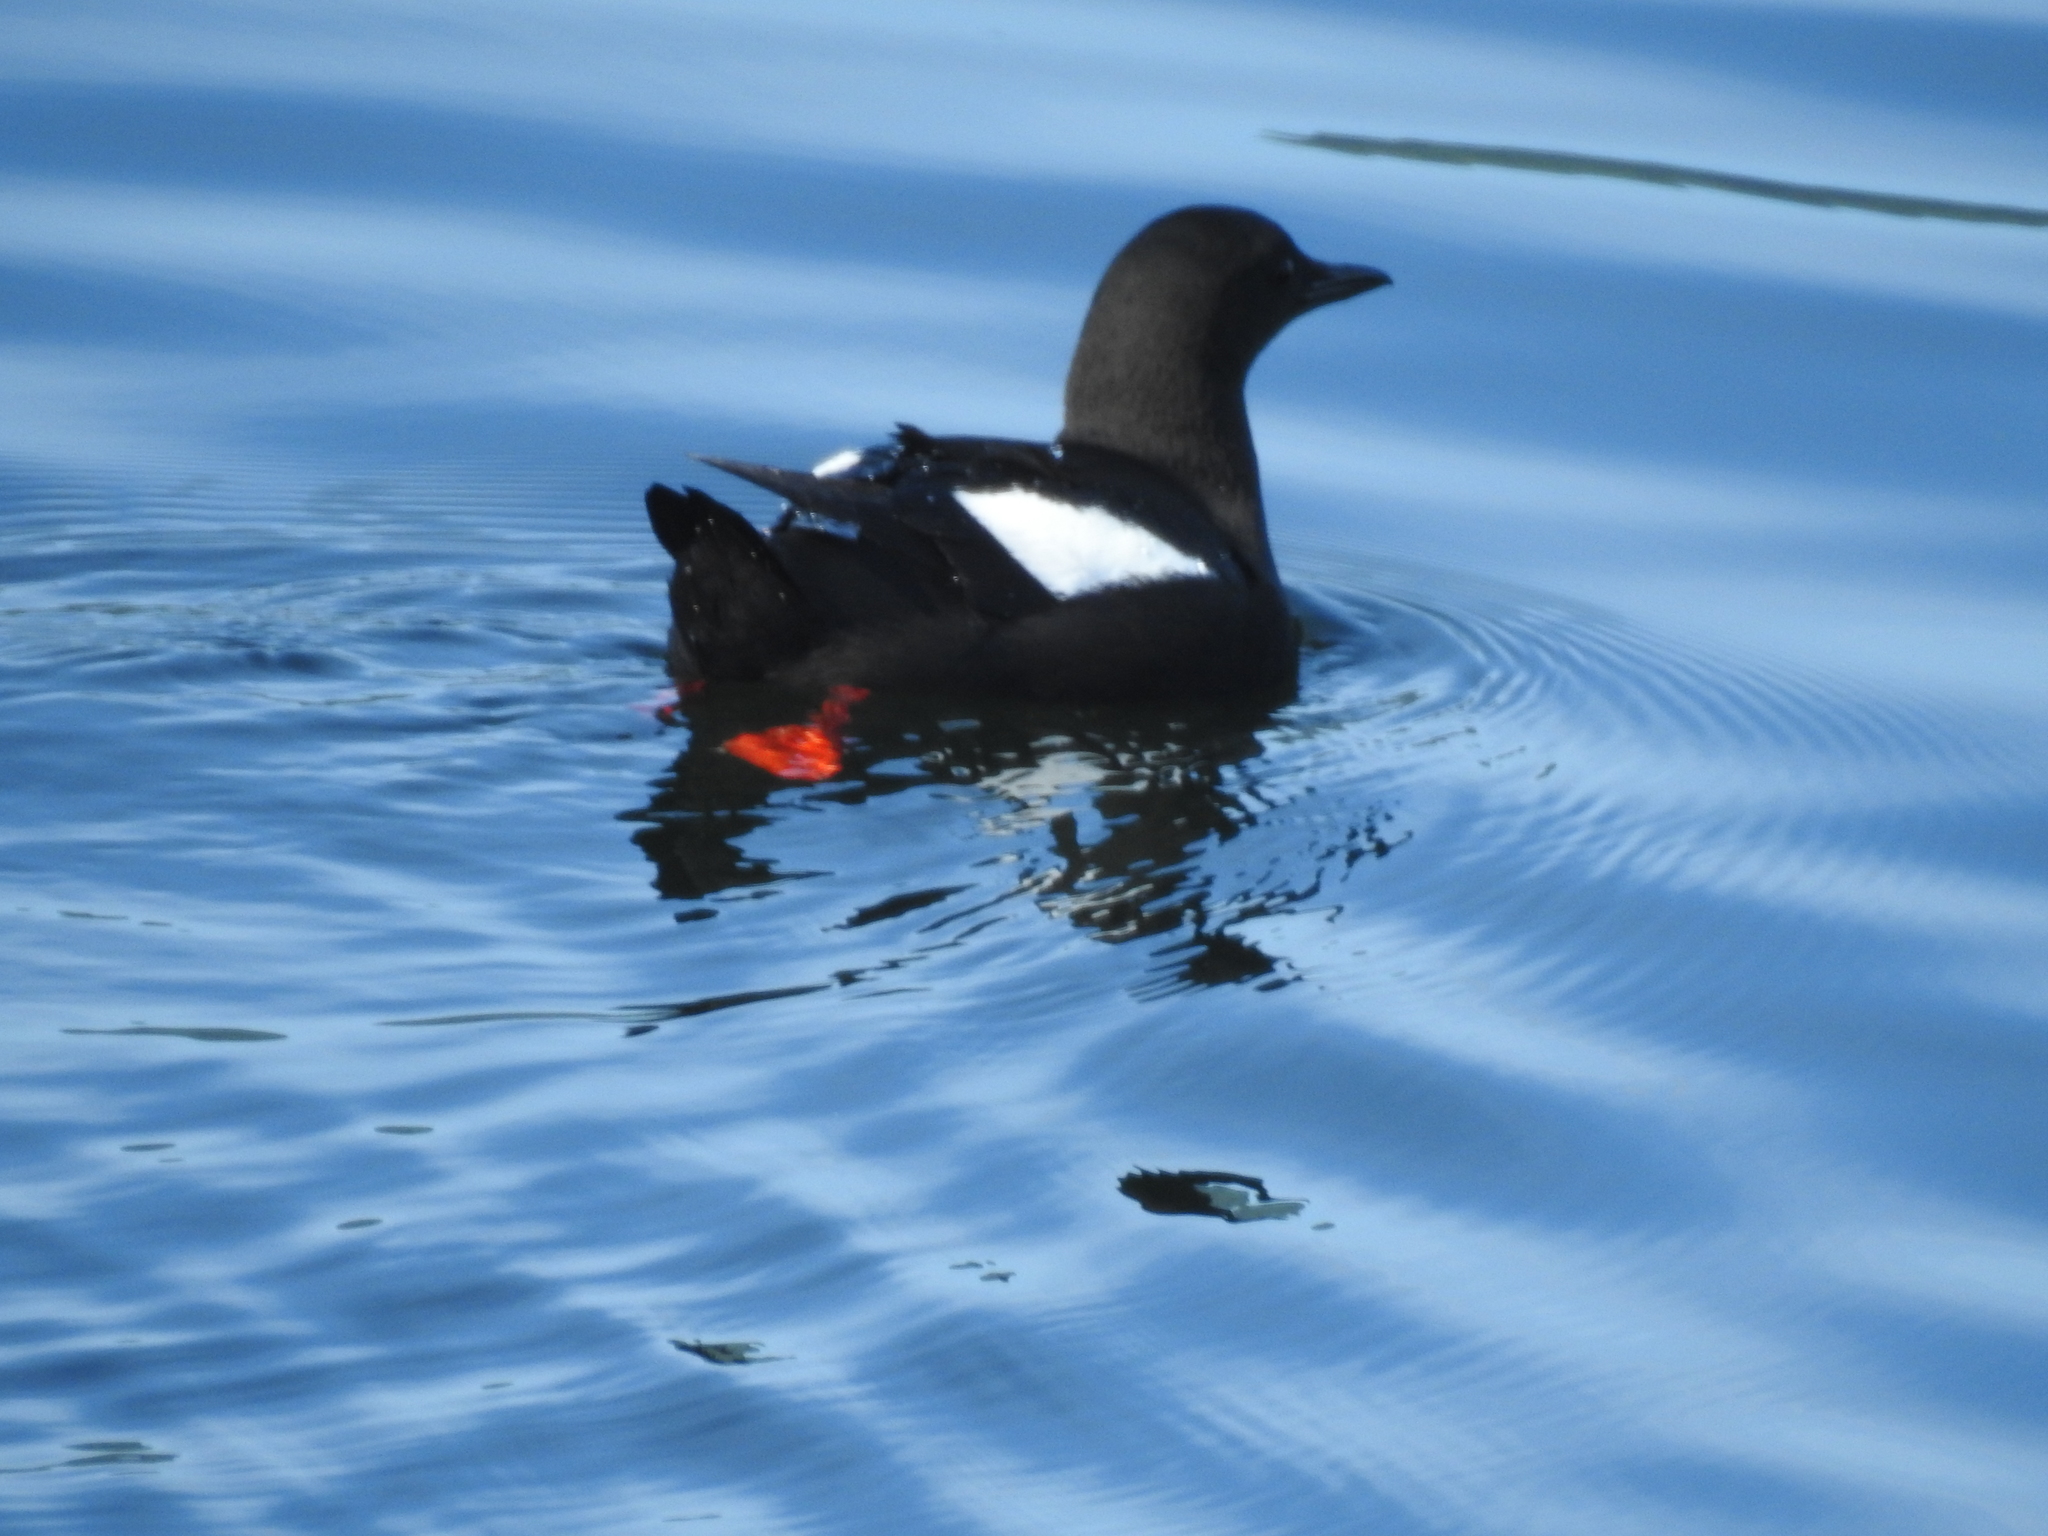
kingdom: Animalia
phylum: Chordata
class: Aves
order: Charadriiformes
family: Alcidae
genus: Cepphus
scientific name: Cepphus grylle
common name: Black guillemot
